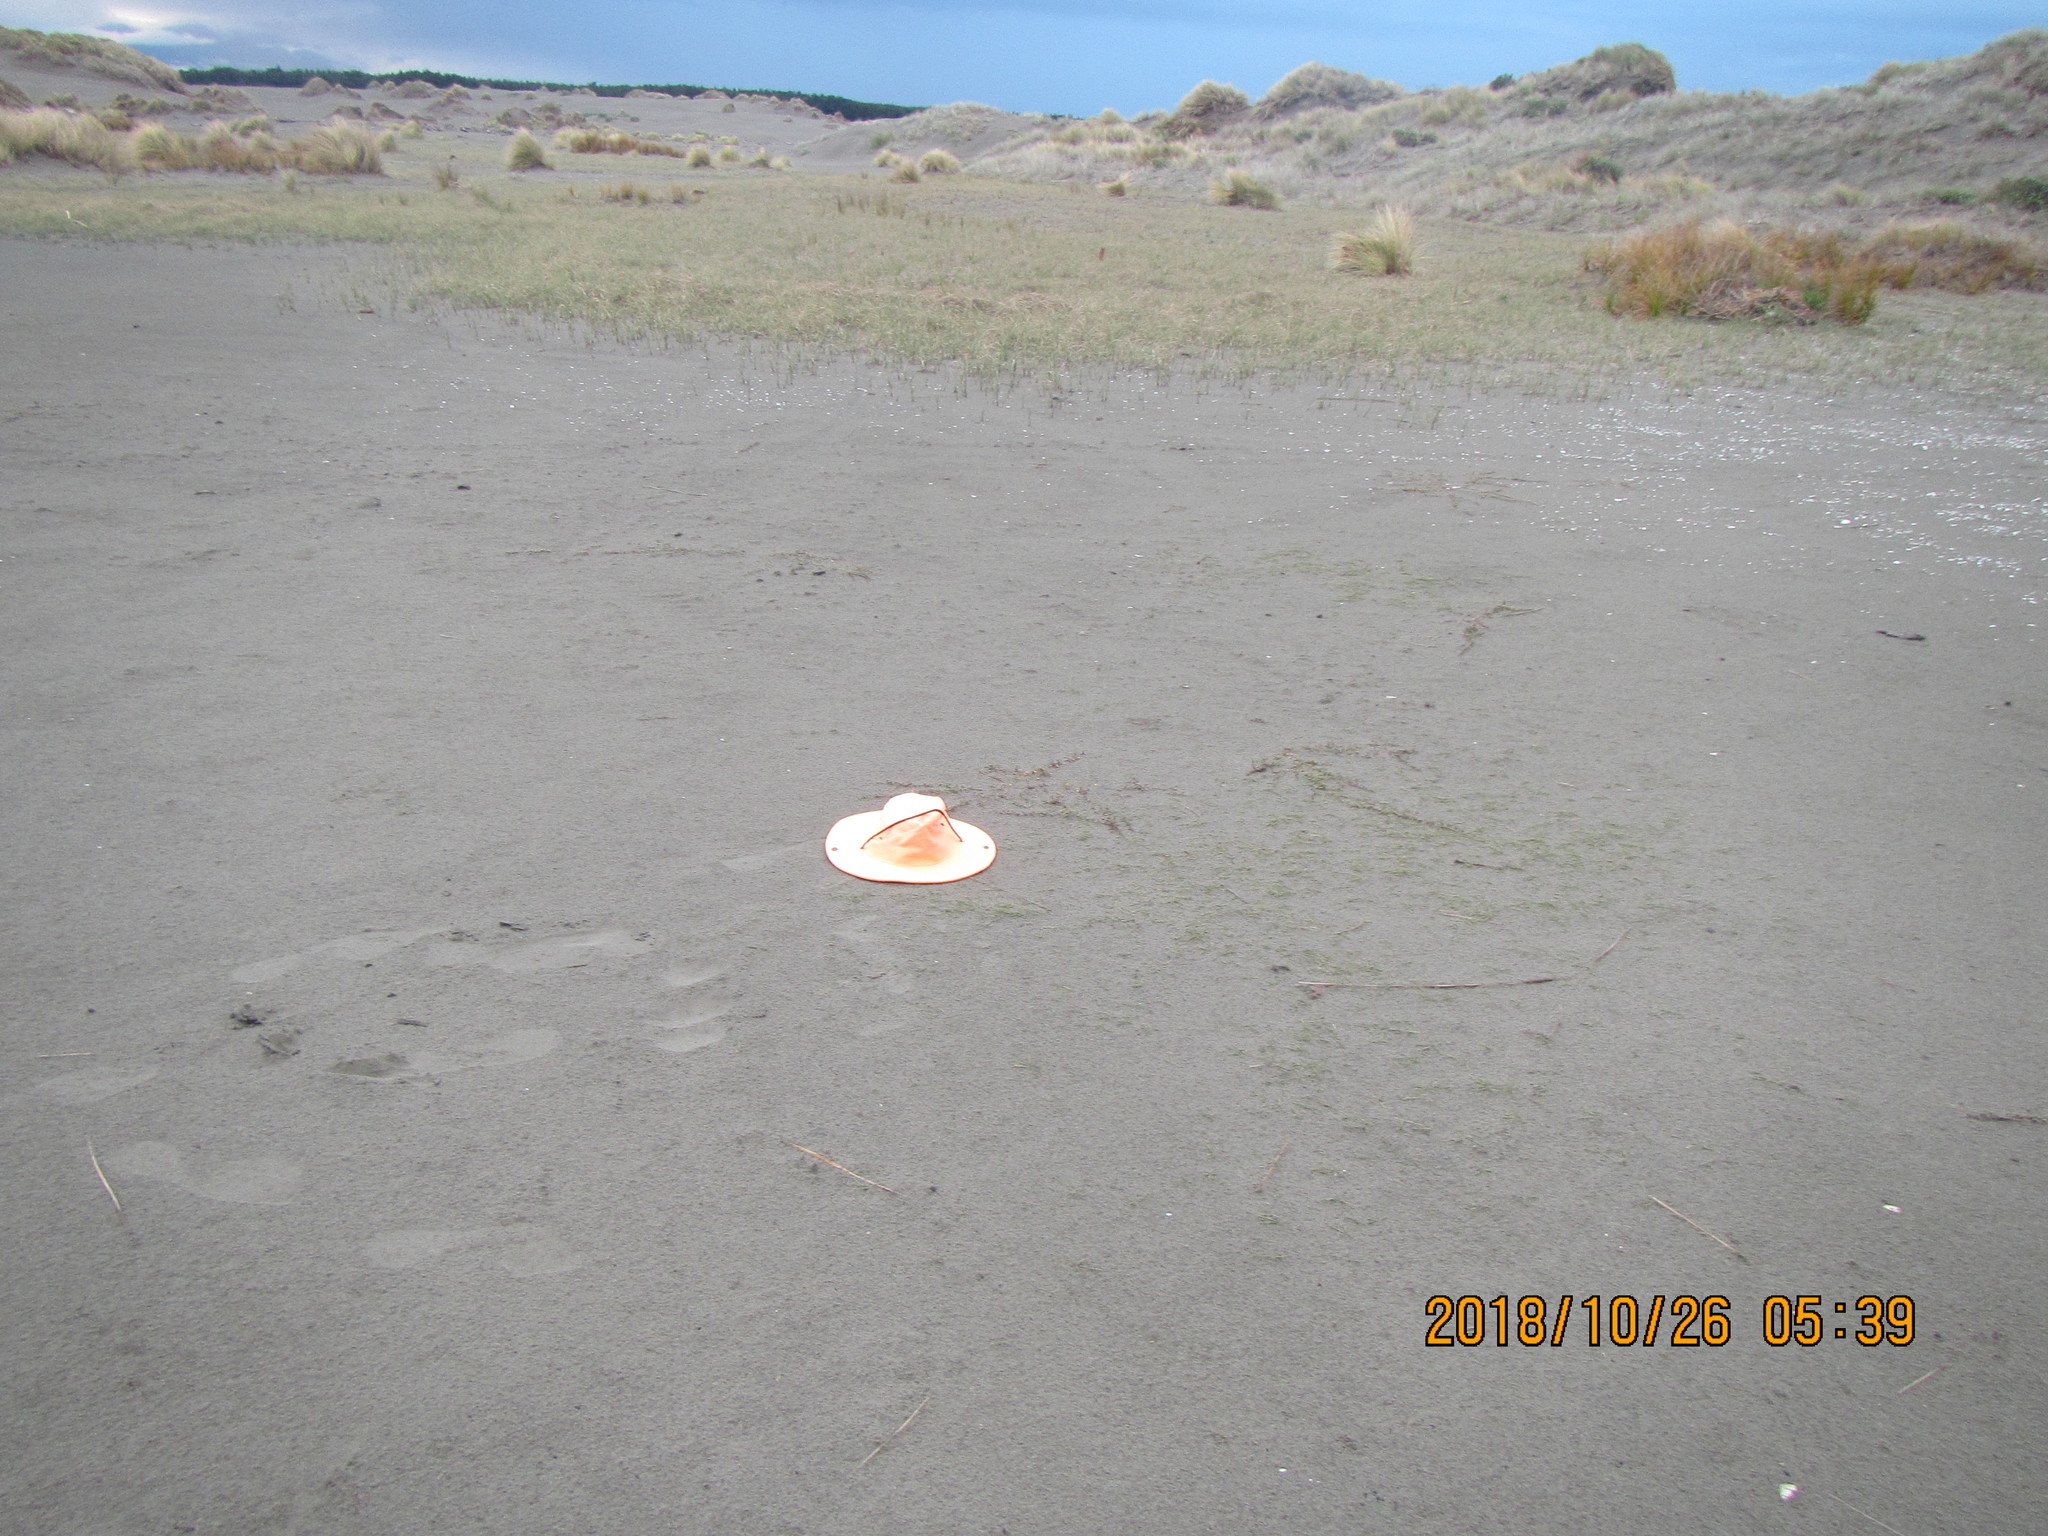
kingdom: Plantae
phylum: Tracheophyta
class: Magnoliopsida
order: Ericales
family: Primulaceae
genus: Samolus
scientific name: Samolus repens
